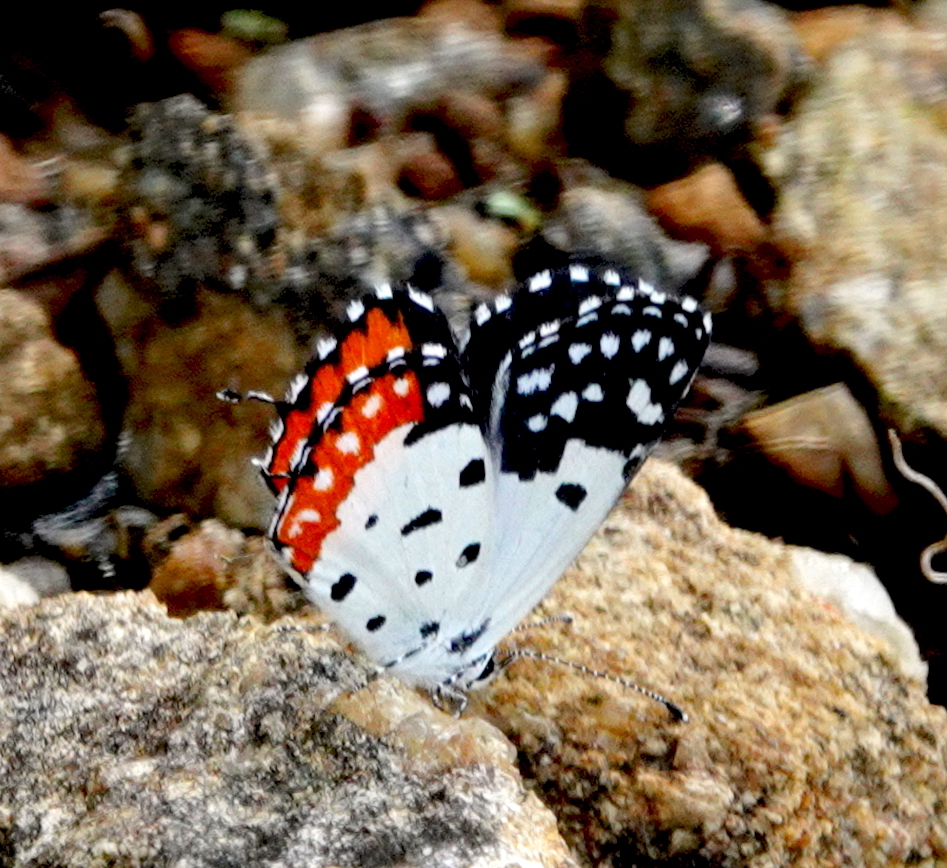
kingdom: Animalia
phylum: Arthropoda
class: Insecta
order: Lepidoptera
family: Lycaenidae
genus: Talicada
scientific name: Talicada nyseus
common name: Red pierrot
